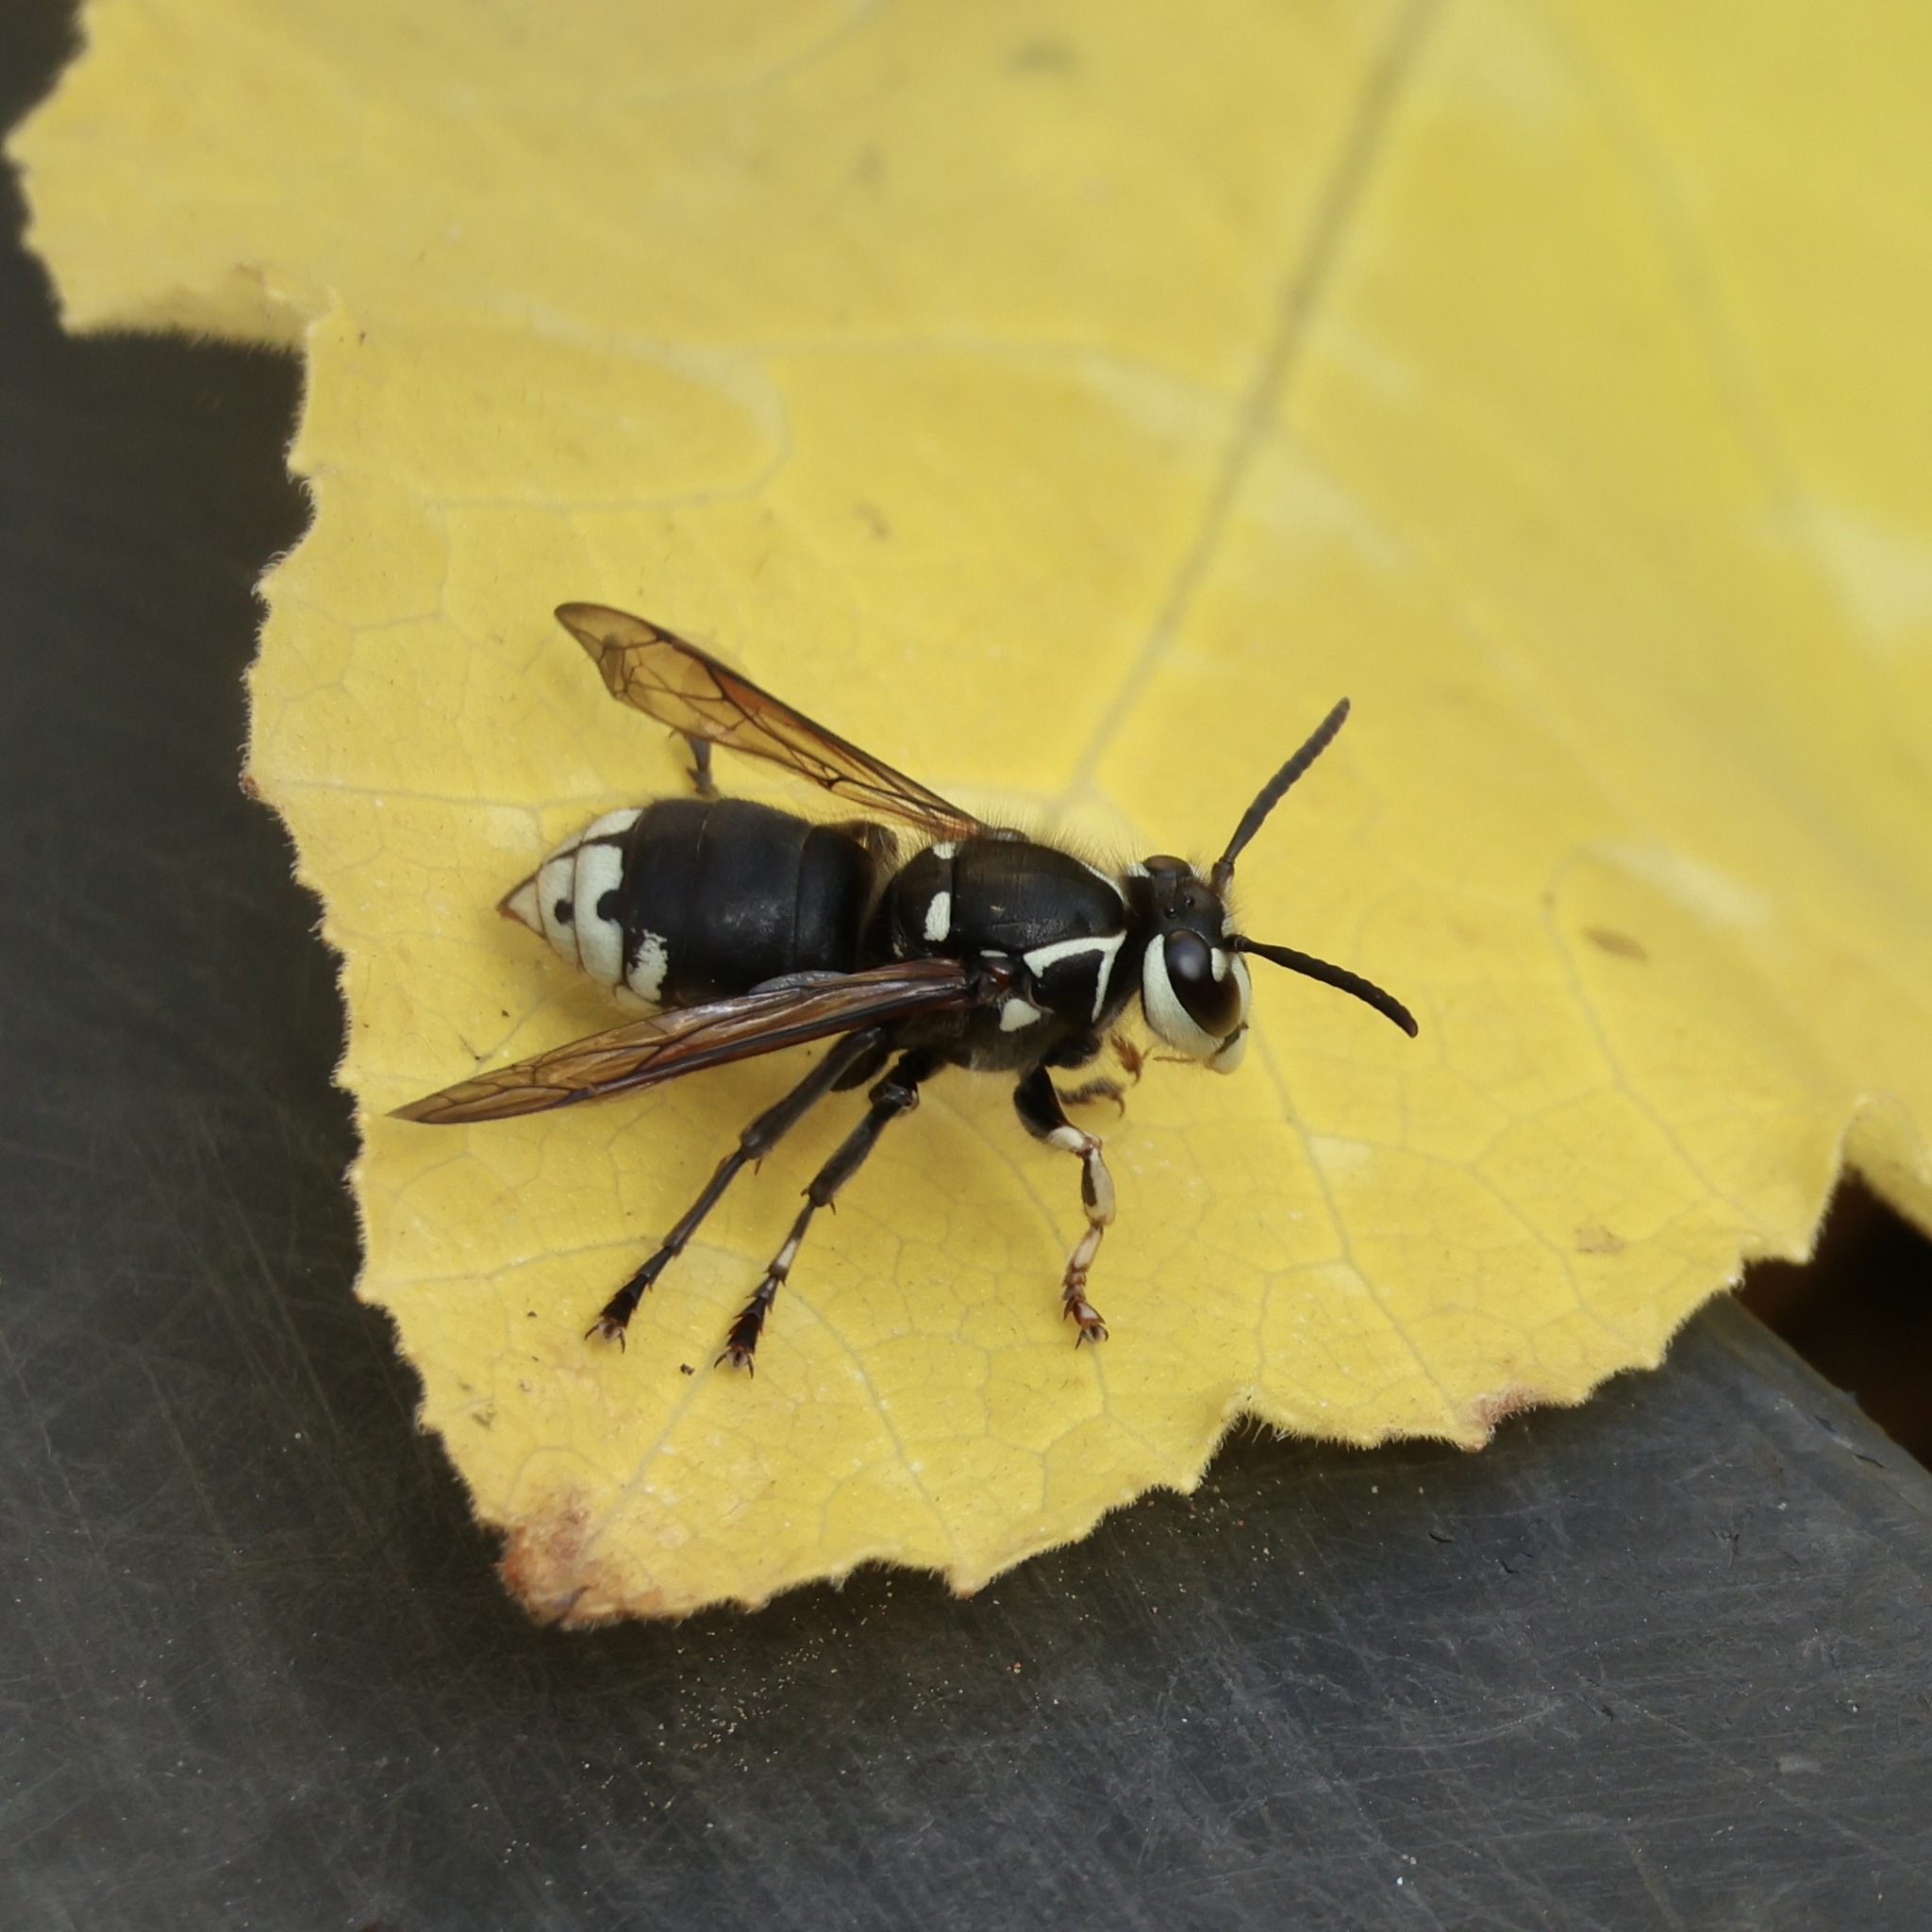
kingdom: Animalia
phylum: Arthropoda
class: Insecta
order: Hymenoptera
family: Vespidae
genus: Dolichovespula
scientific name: Dolichovespula maculata
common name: Bald-faced hornet
